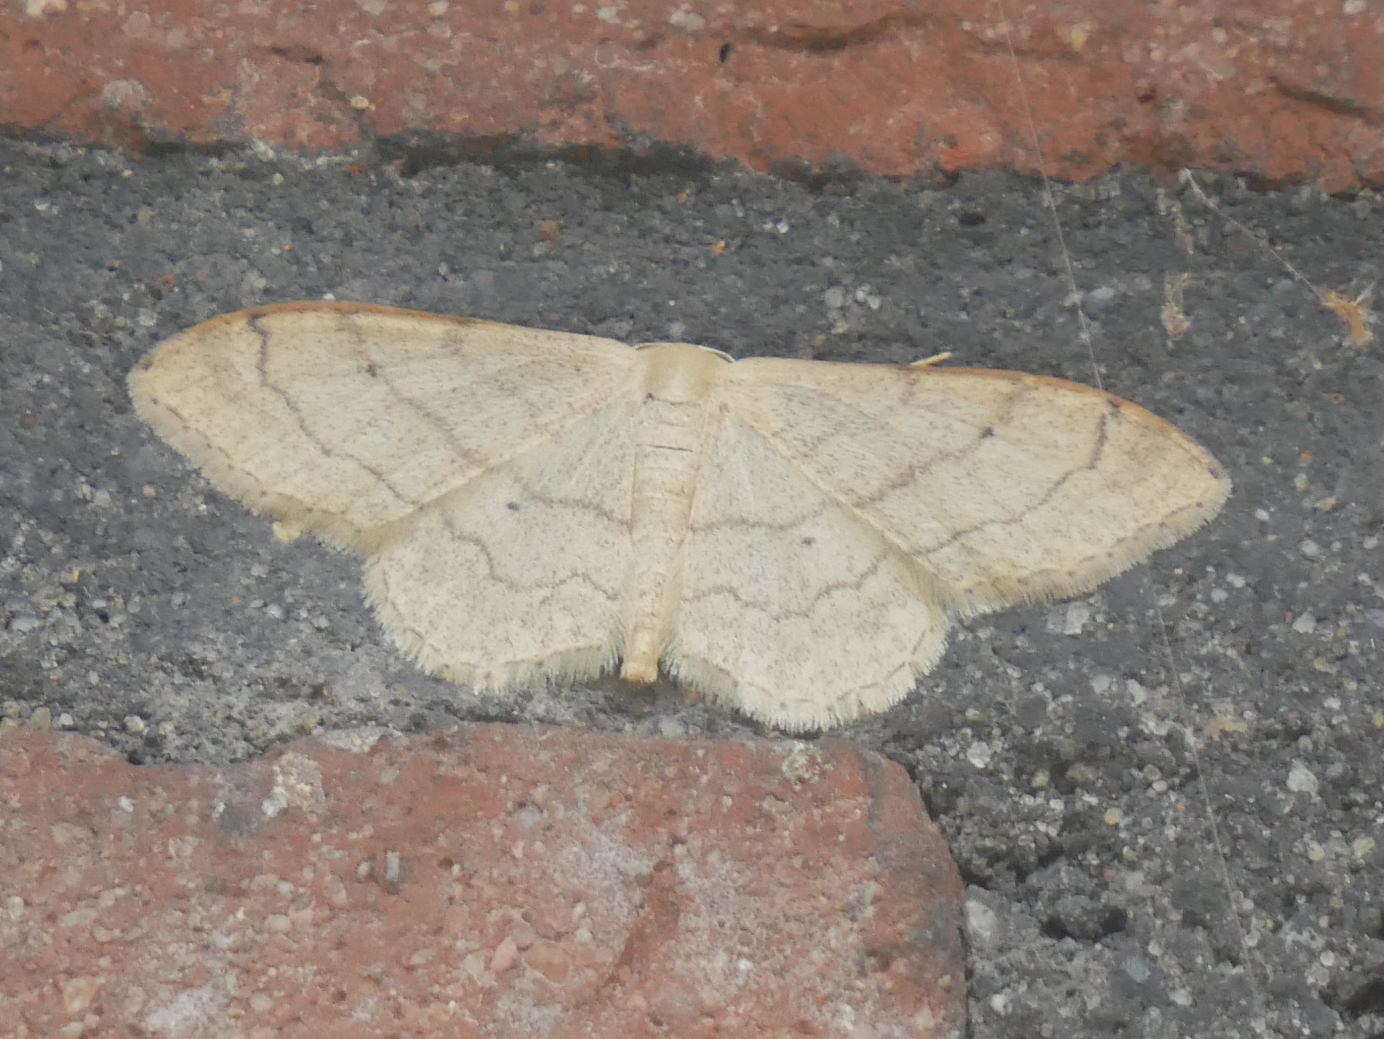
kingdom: Animalia
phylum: Arthropoda
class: Insecta
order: Lepidoptera
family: Geometridae
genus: Idaea
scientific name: Idaea aversata
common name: Riband wave
